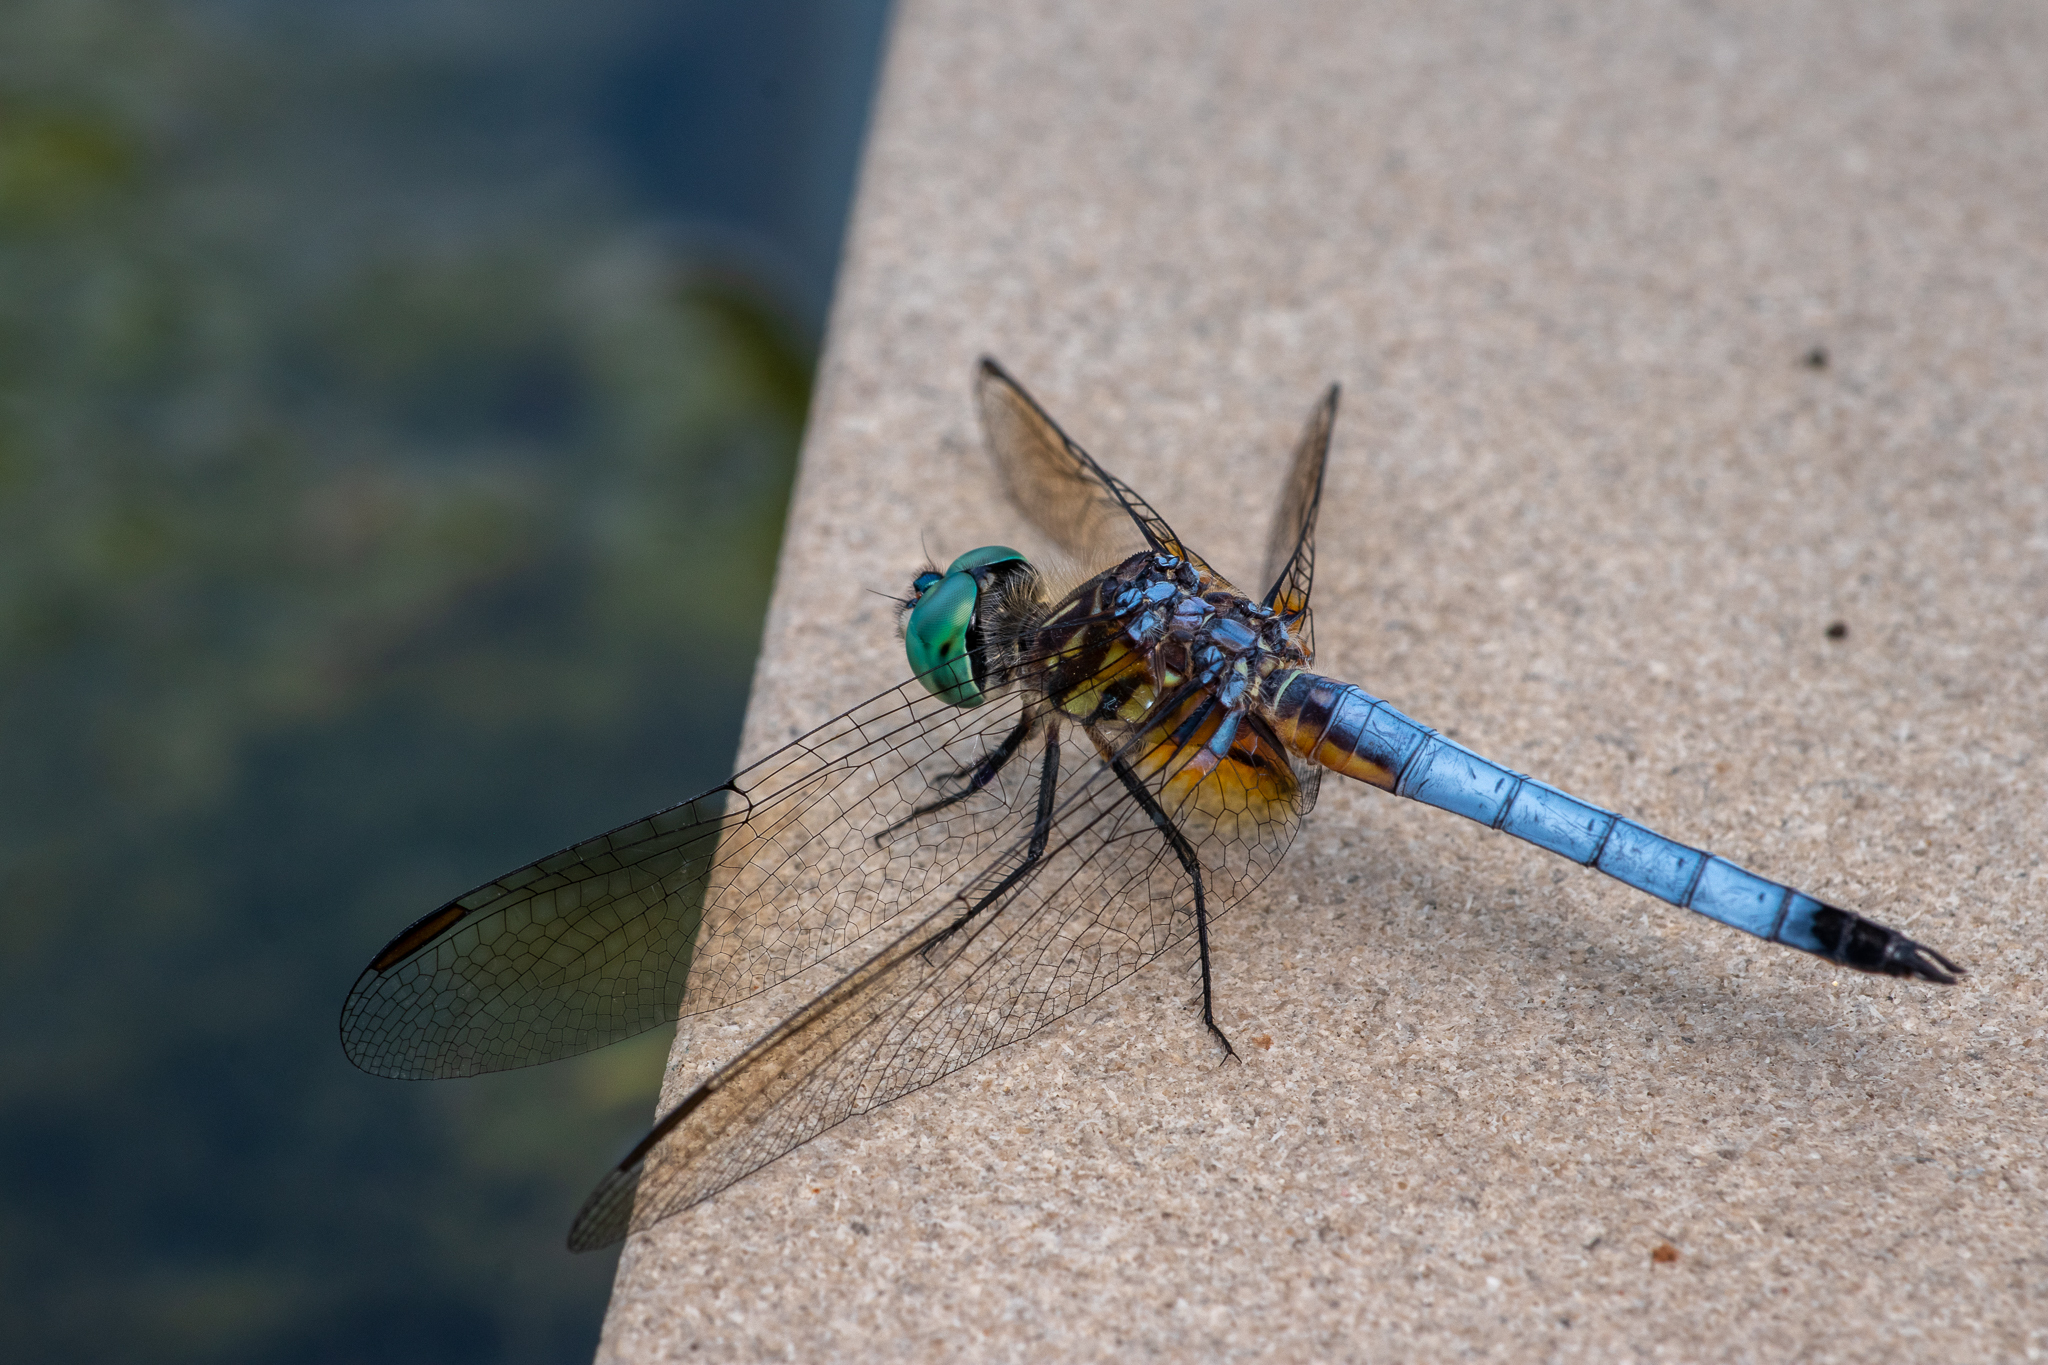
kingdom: Animalia
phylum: Arthropoda
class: Insecta
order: Odonata
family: Libellulidae
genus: Pachydiplax
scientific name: Pachydiplax longipennis
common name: Blue dasher
